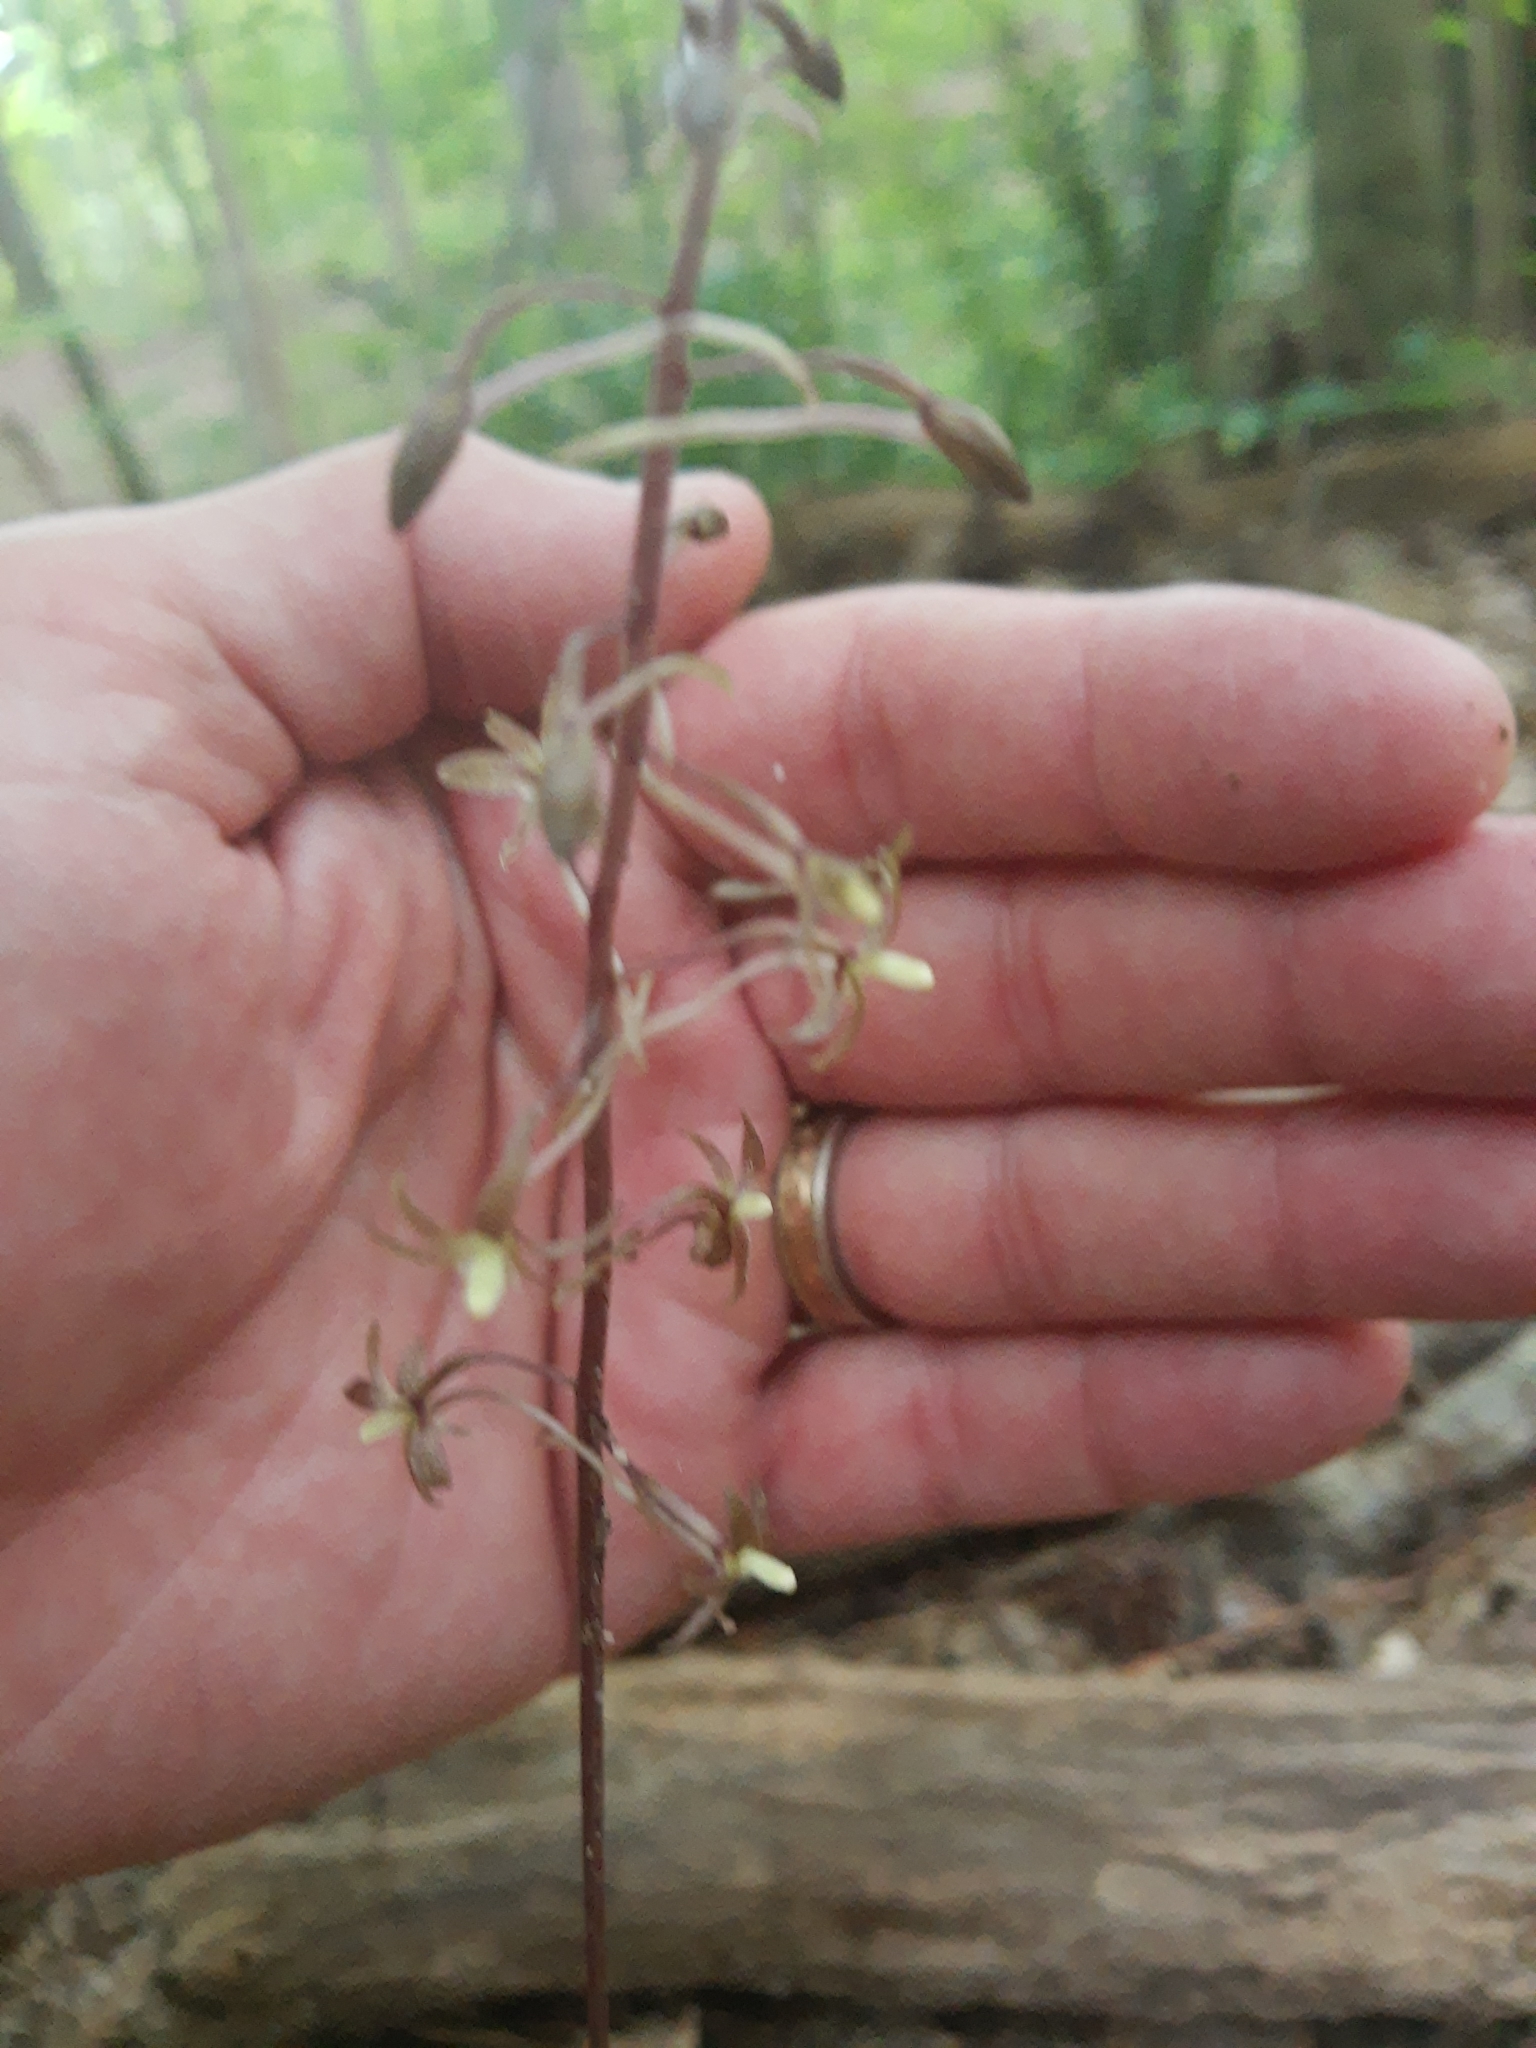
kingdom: Plantae
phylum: Tracheophyta
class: Liliopsida
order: Asparagales
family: Orchidaceae
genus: Tipularia
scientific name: Tipularia discolor
